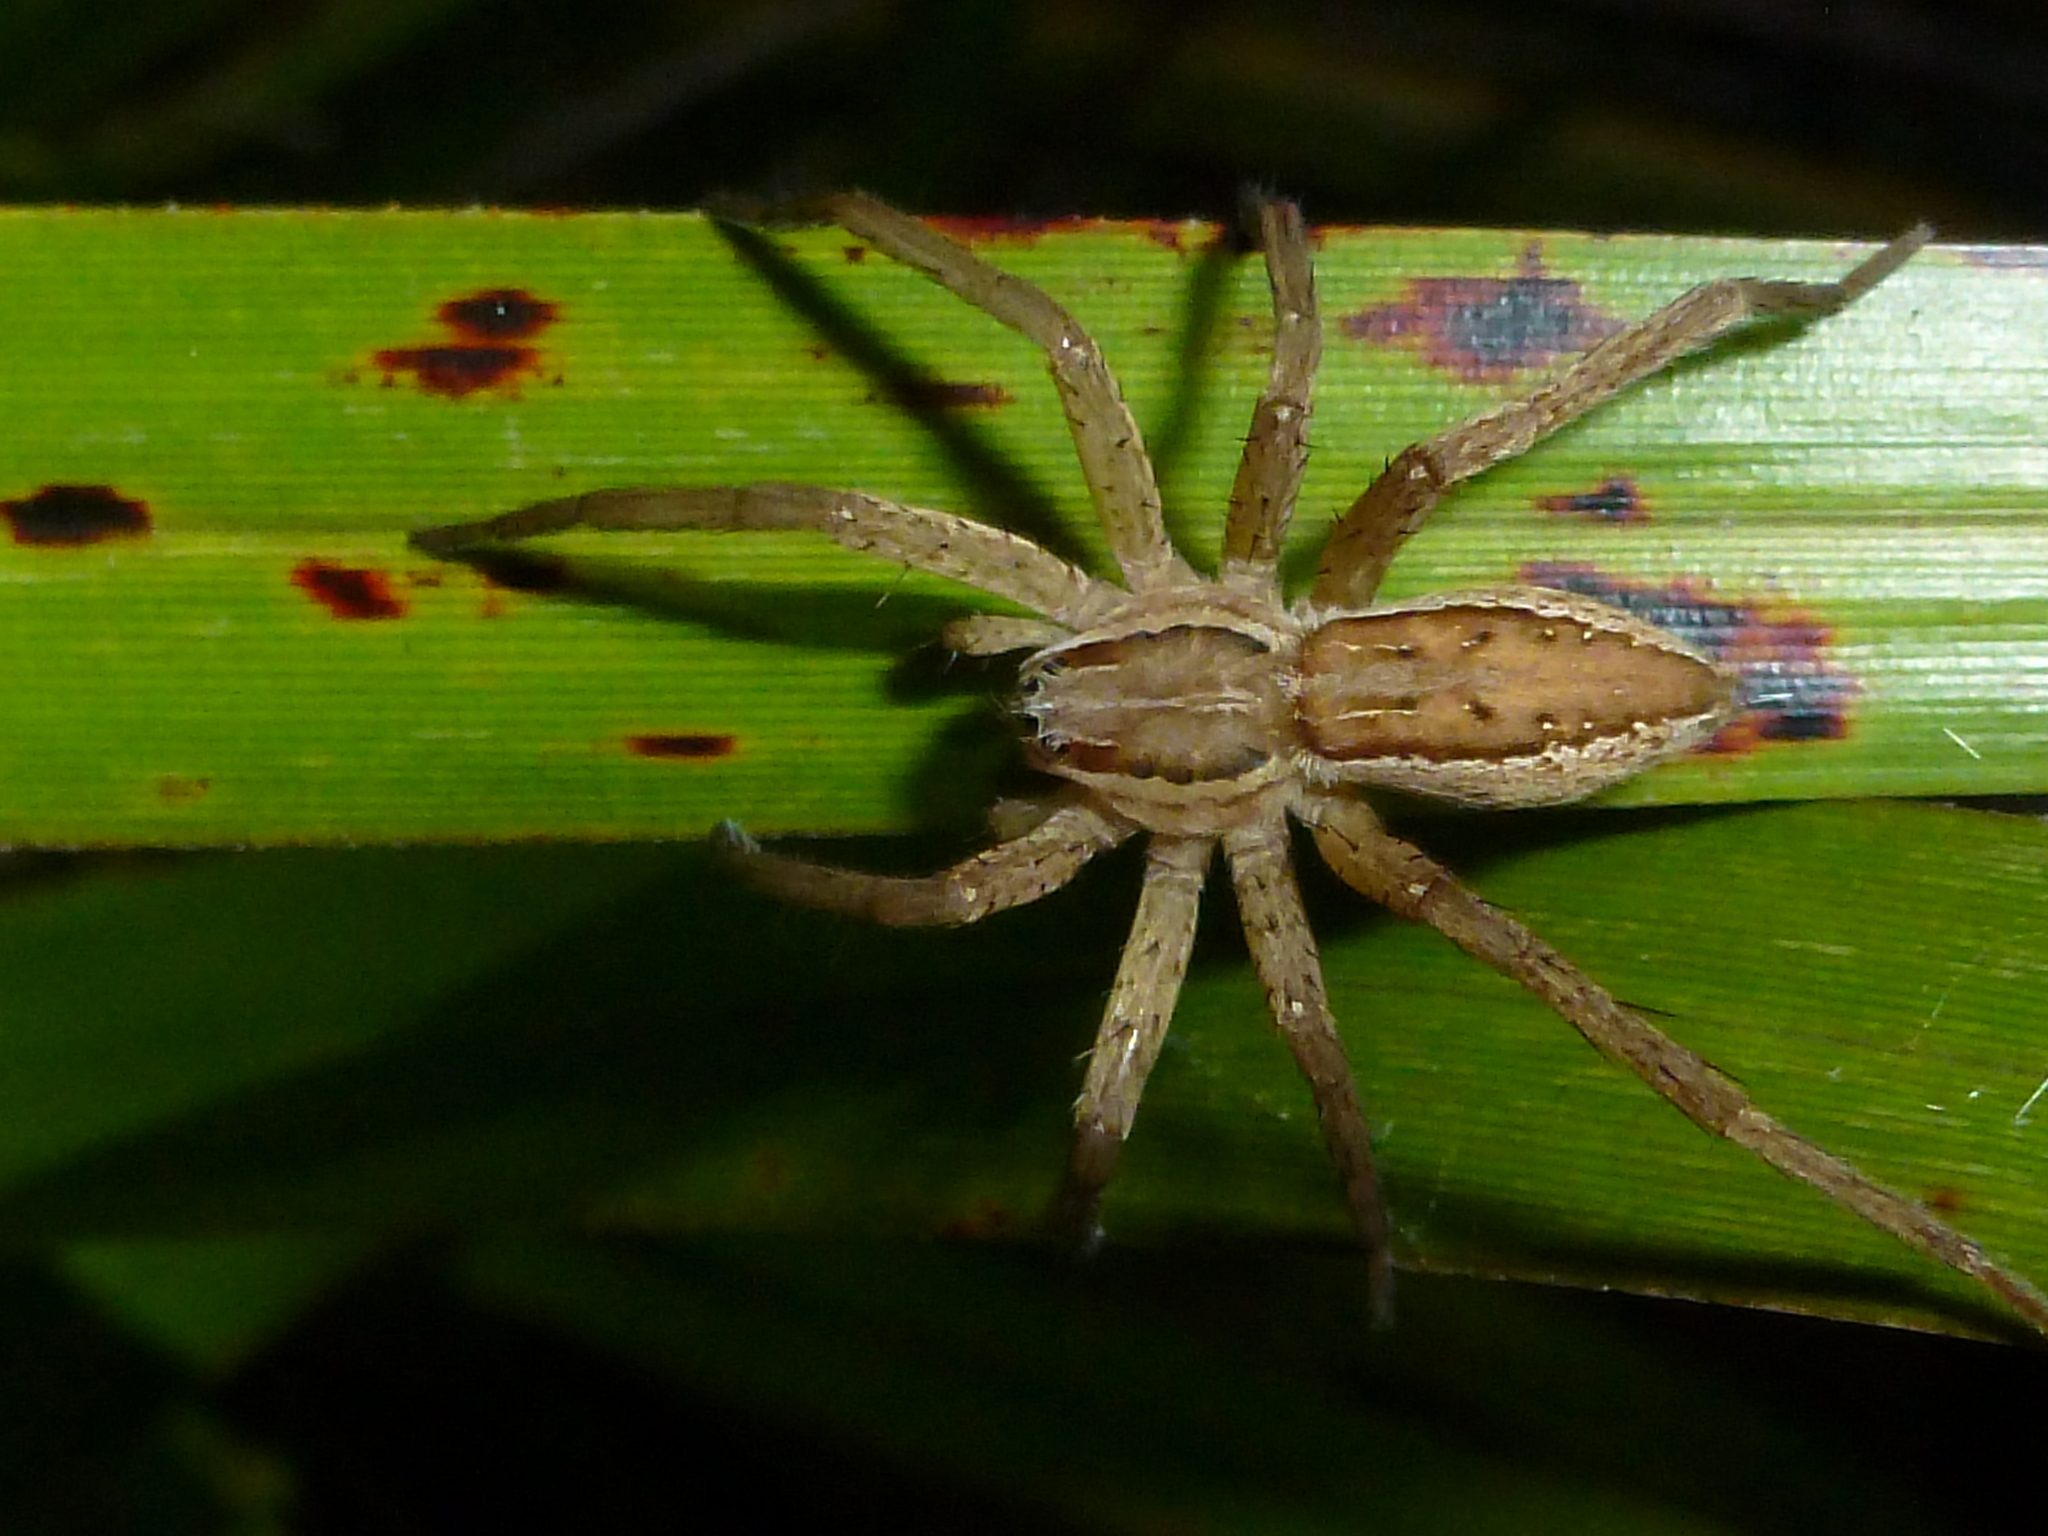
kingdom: Animalia
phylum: Arthropoda
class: Arachnida
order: Araneae
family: Pisauridae
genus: Dolomedes
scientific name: Dolomedes minor
